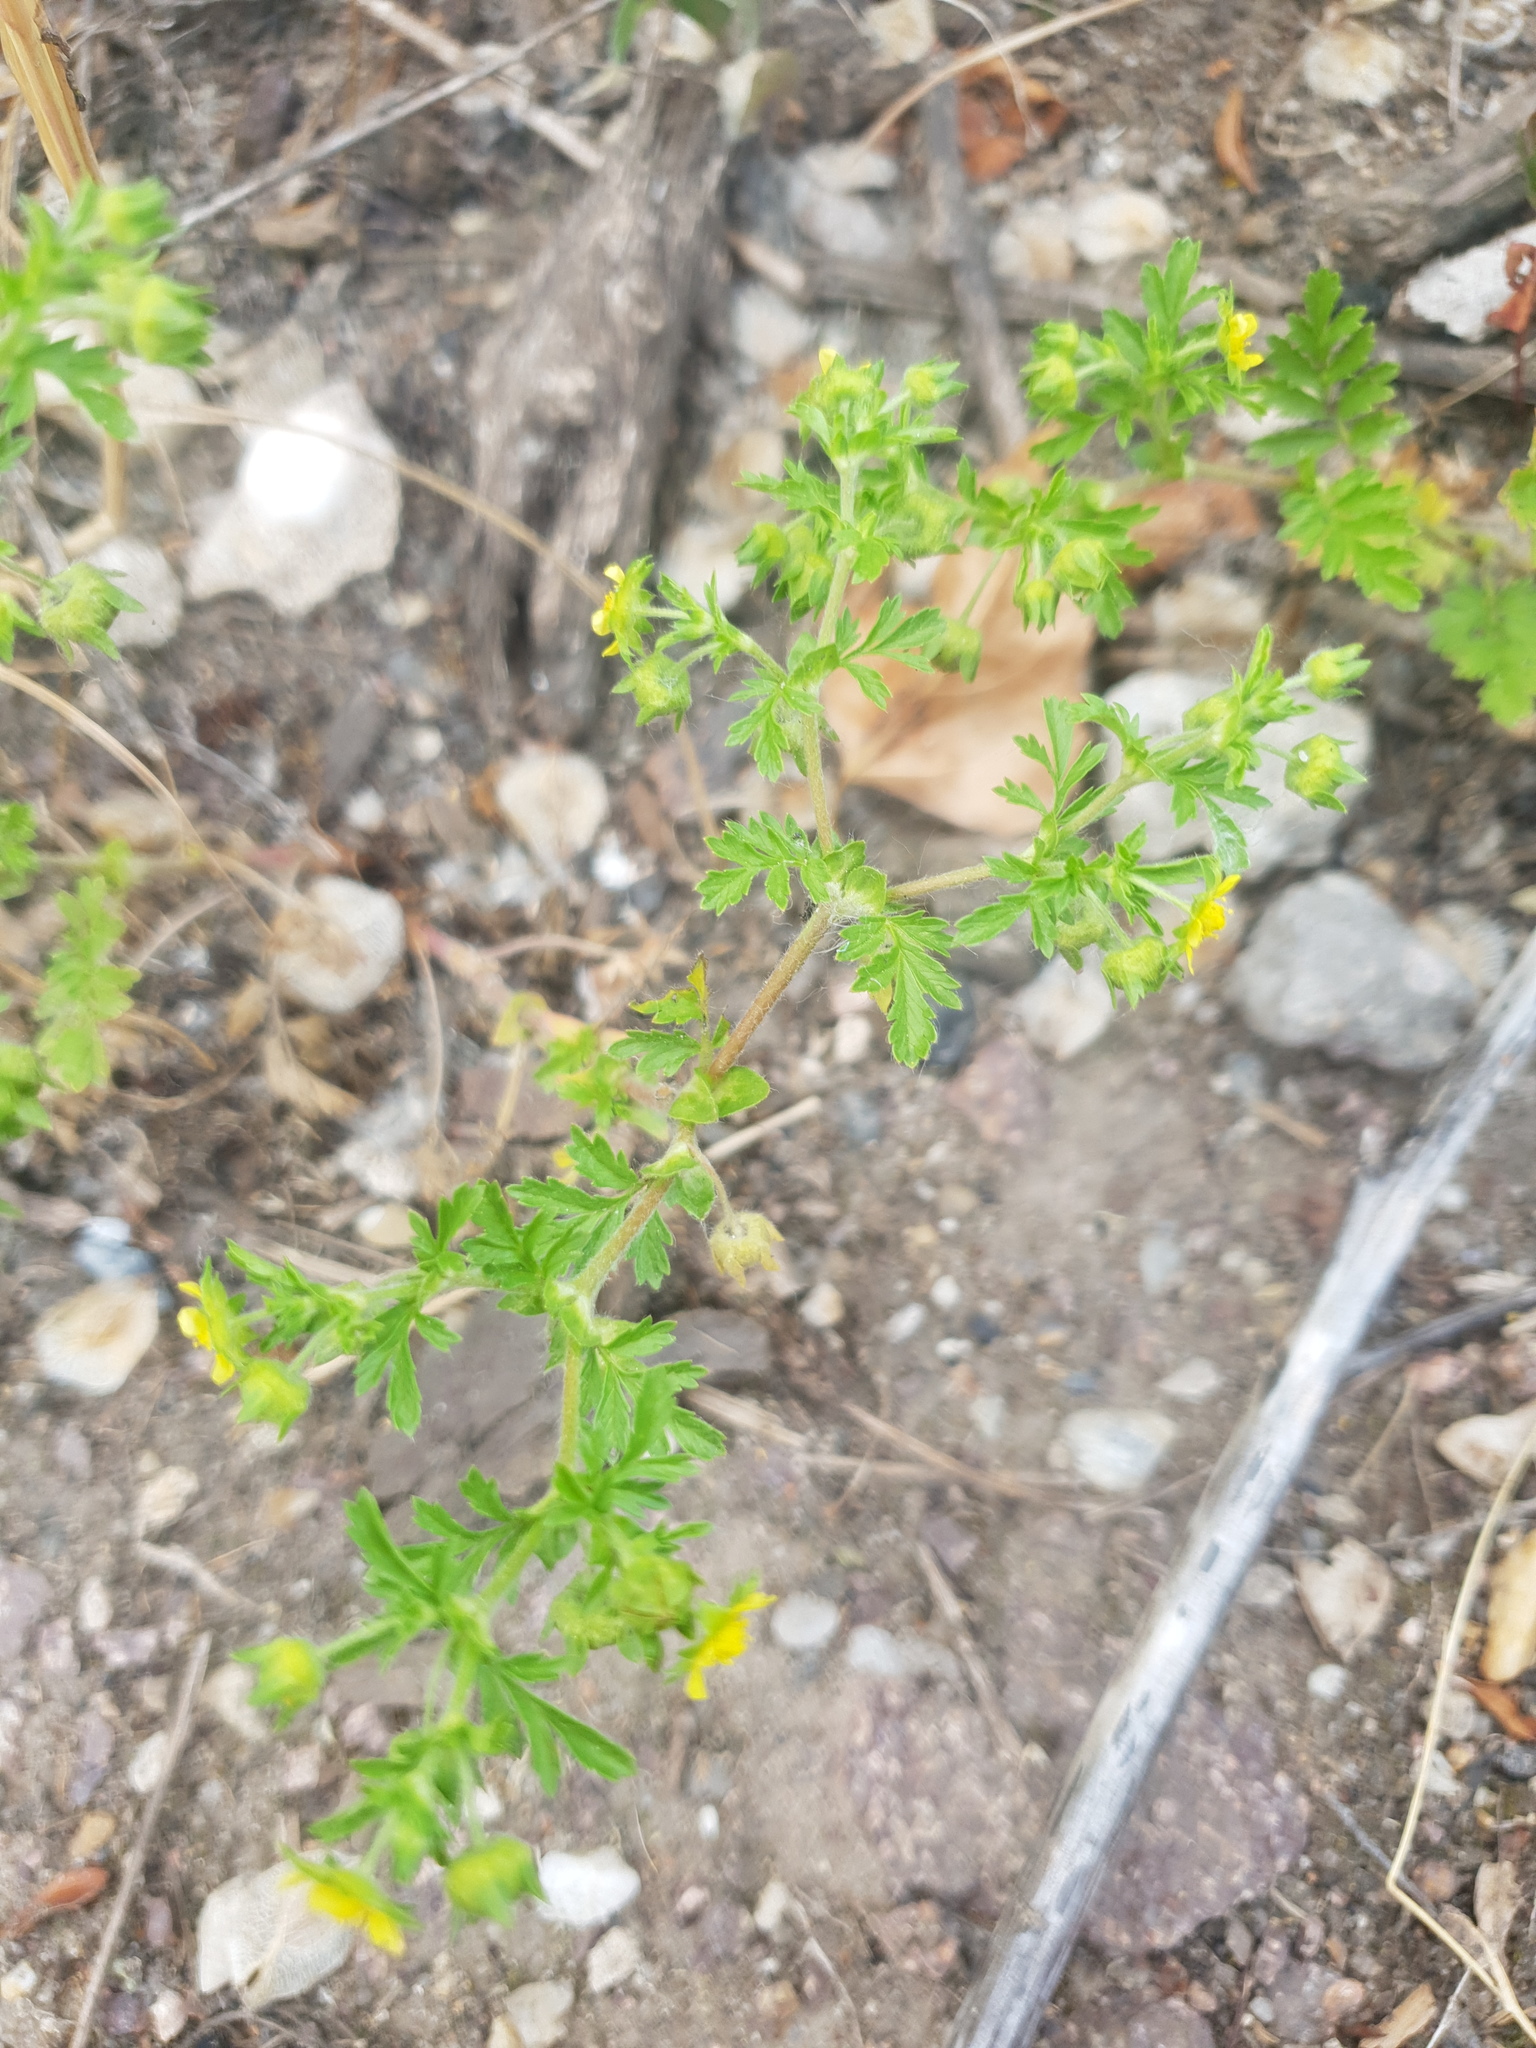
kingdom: Plantae
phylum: Tracheophyta
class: Magnoliopsida
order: Rosales
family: Rosaceae
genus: Potentilla
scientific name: Potentilla supina
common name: Prostrate cinquefoil
